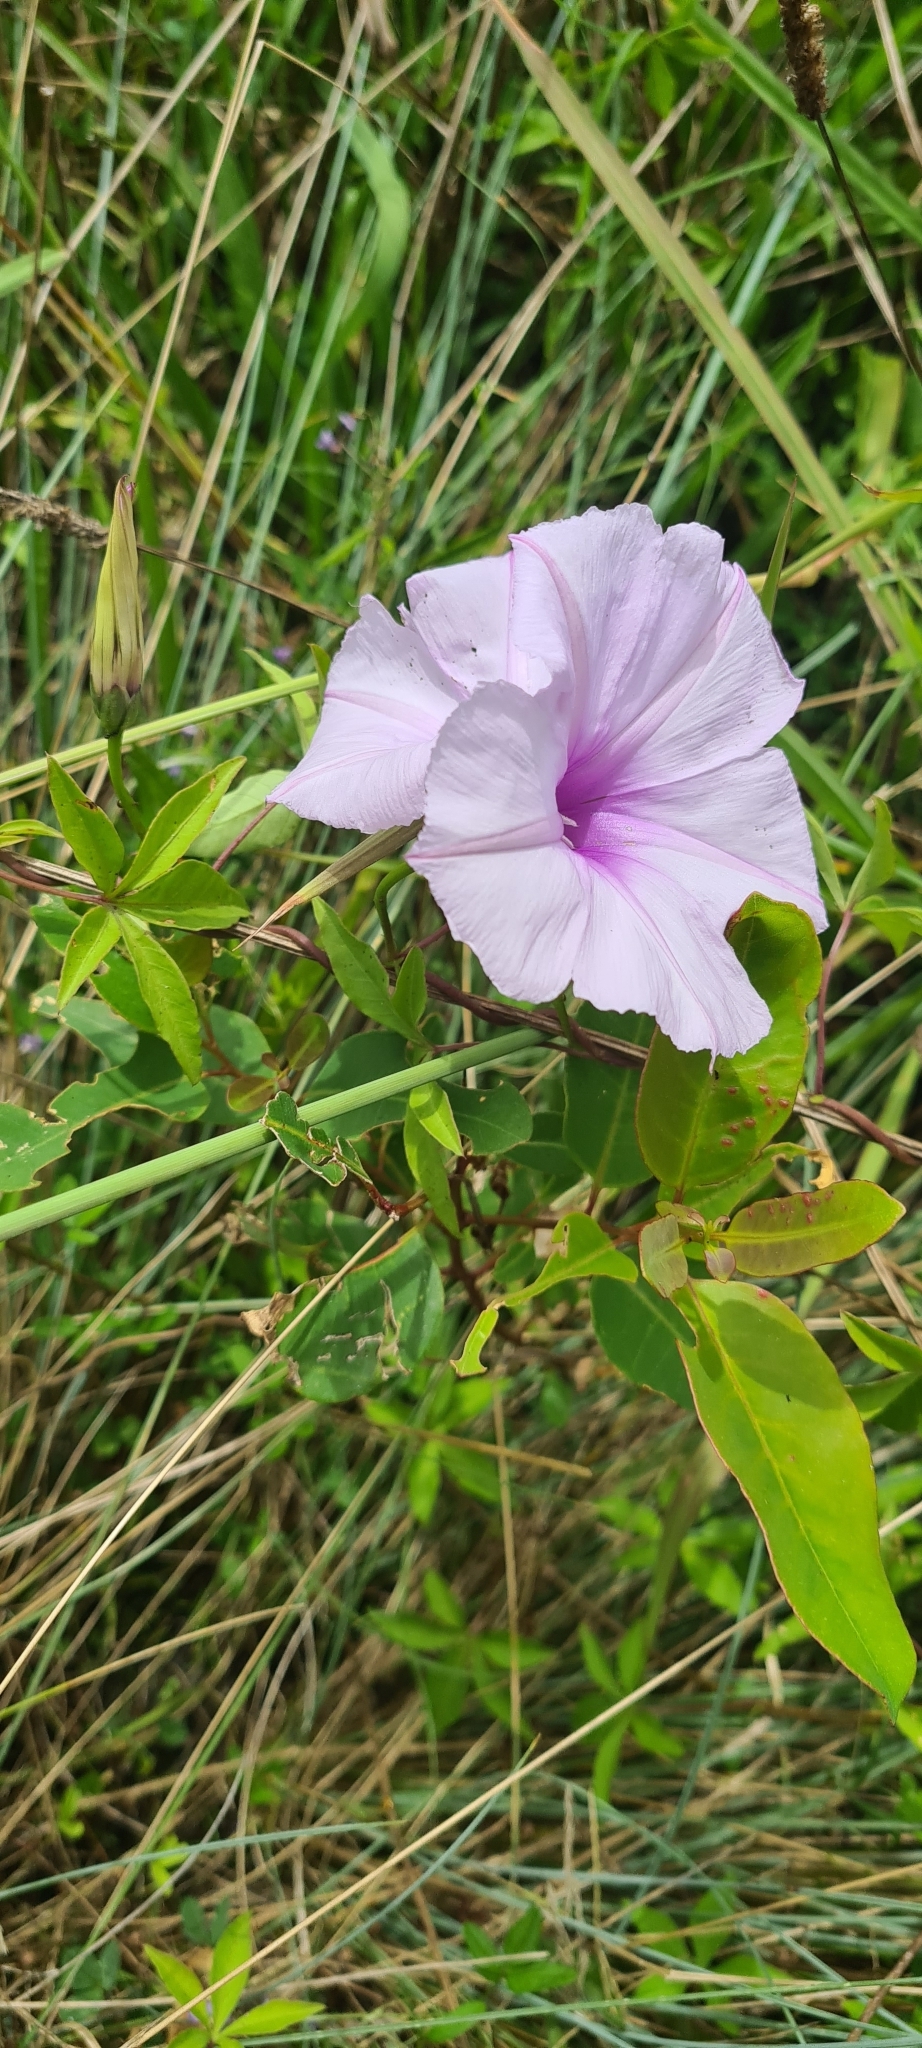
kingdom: Plantae
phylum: Tracheophyta
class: Magnoliopsida
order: Solanales
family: Convolvulaceae
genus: Ipomoea
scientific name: Ipomoea cairica
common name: Mile a minute vine
